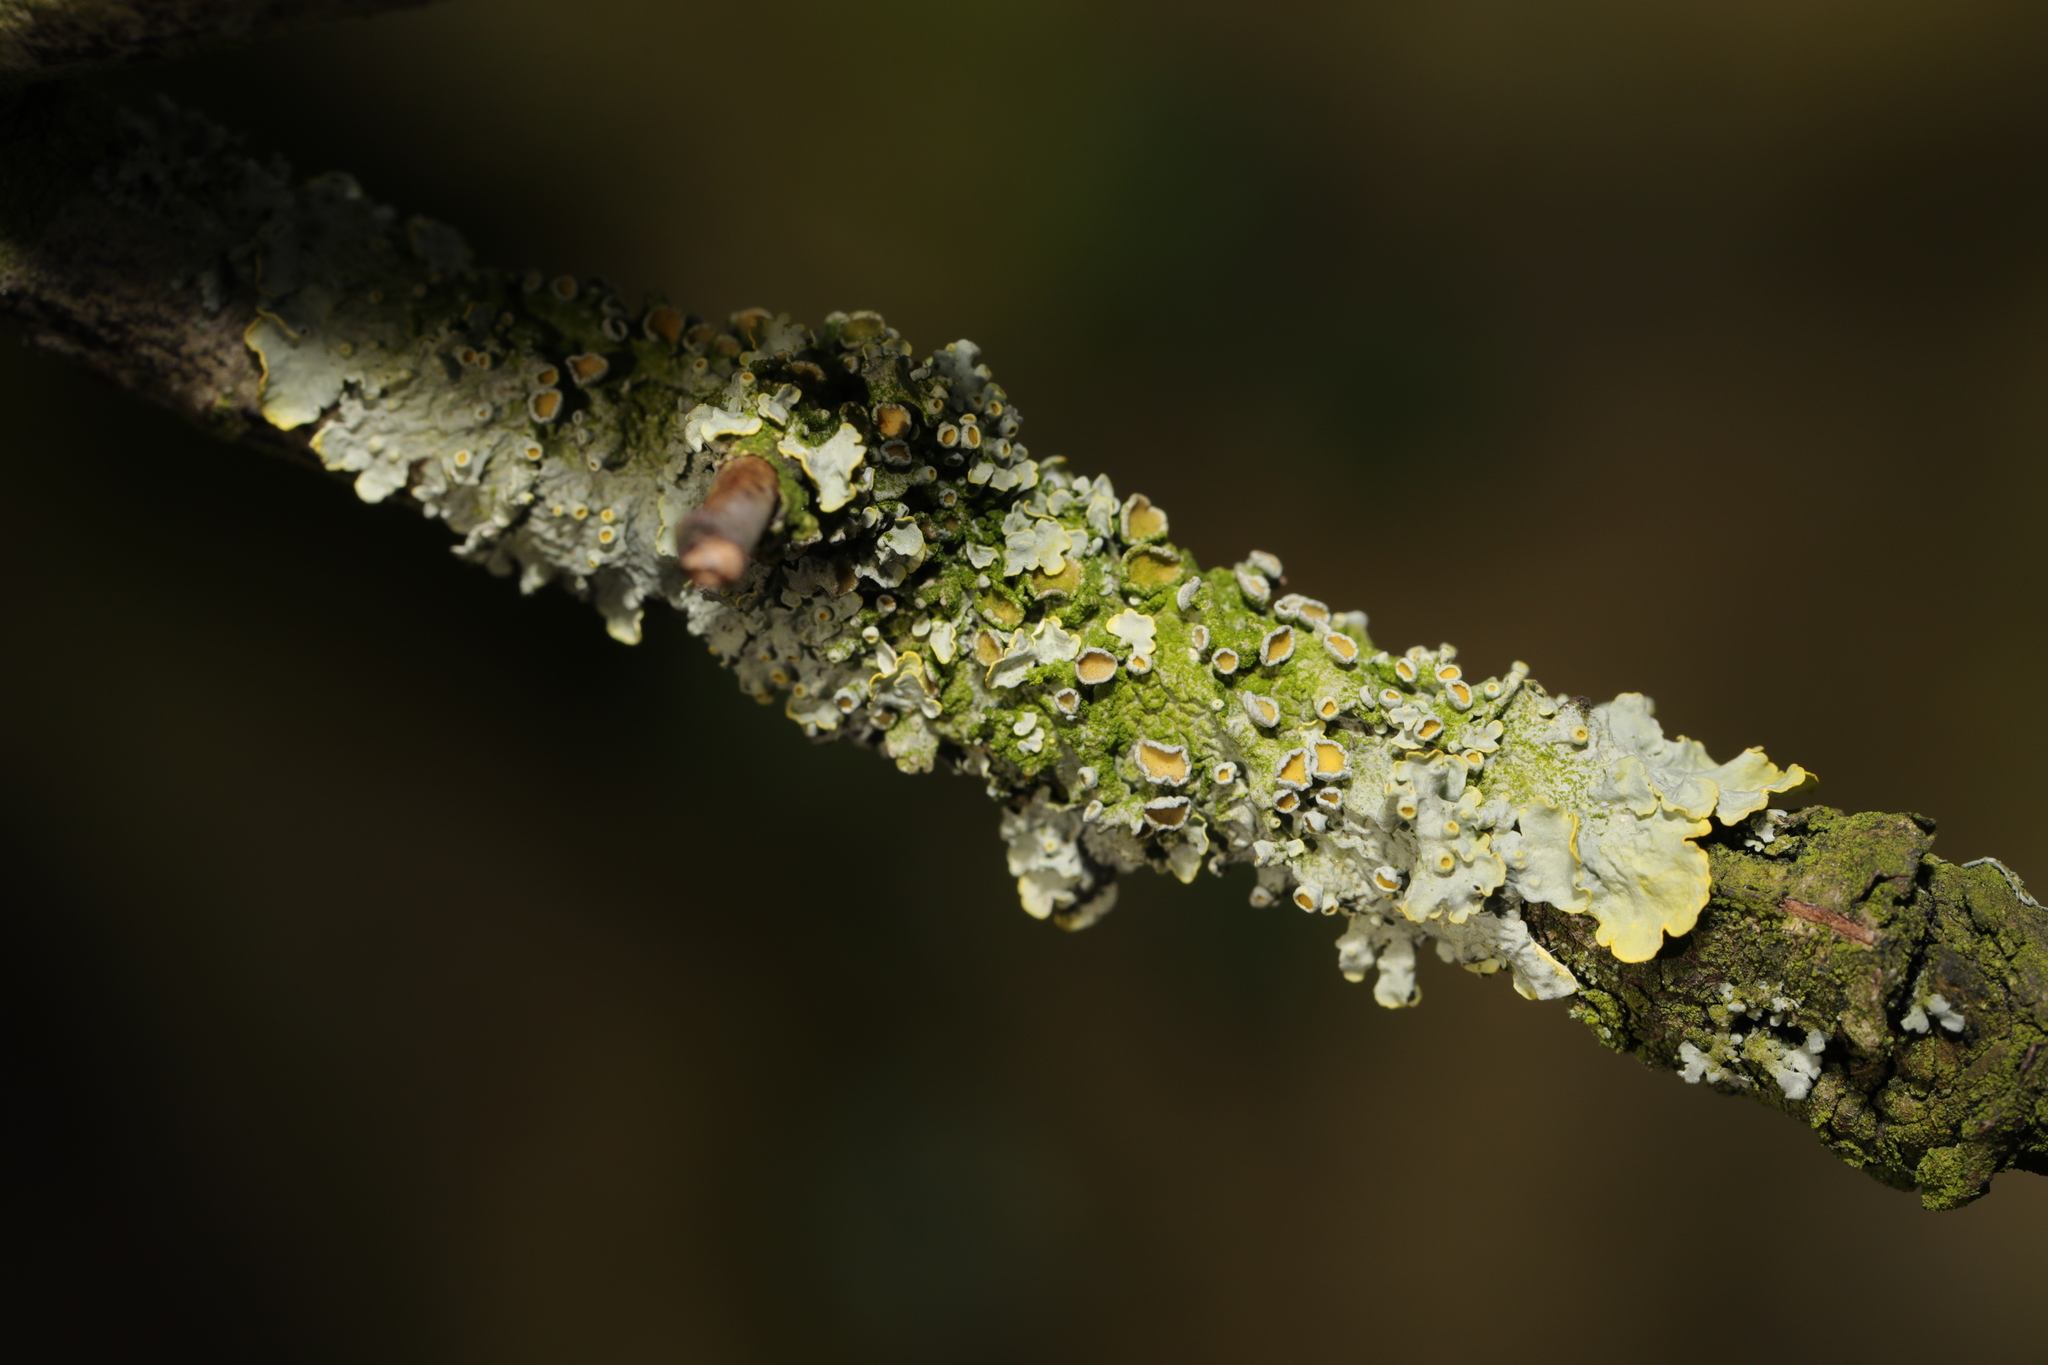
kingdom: Fungi
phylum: Ascomycota
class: Lecanoromycetes
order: Teloschistales
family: Teloschistaceae
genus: Xanthoria
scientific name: Xanthoria parietina
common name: Common orange lichen
